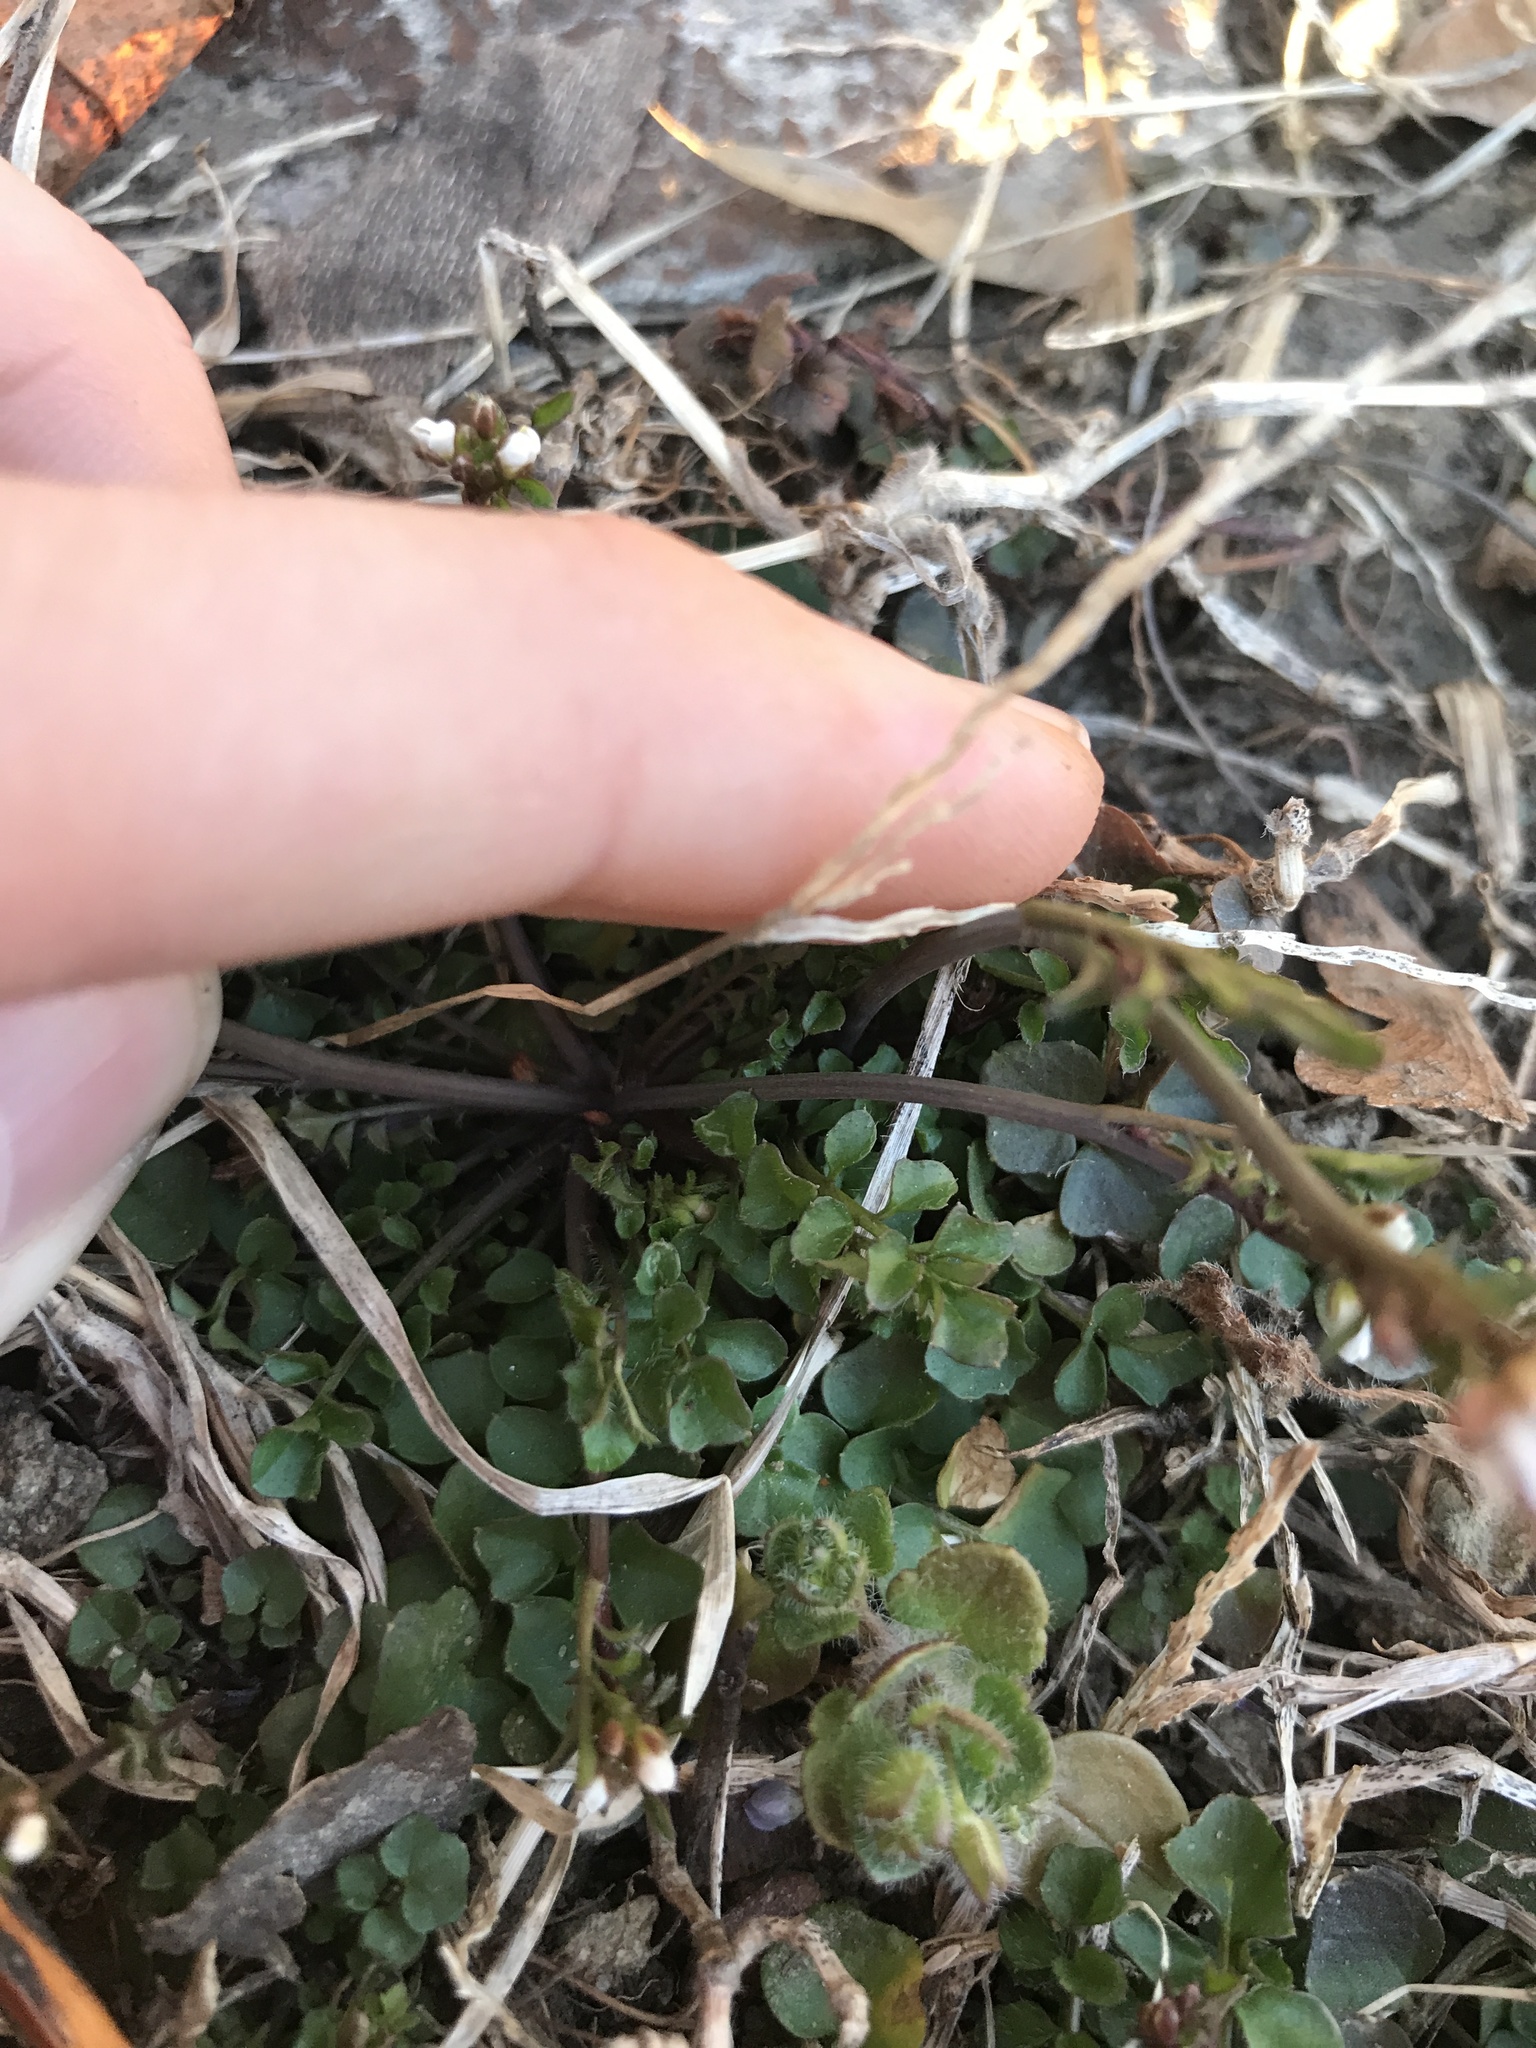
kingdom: Plantae
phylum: Tracheophyta
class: Magnoliopsida
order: Brassicales
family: Brassicaceae
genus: Cardamine
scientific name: Cardamine hirsuta
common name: Hairy bittercress
